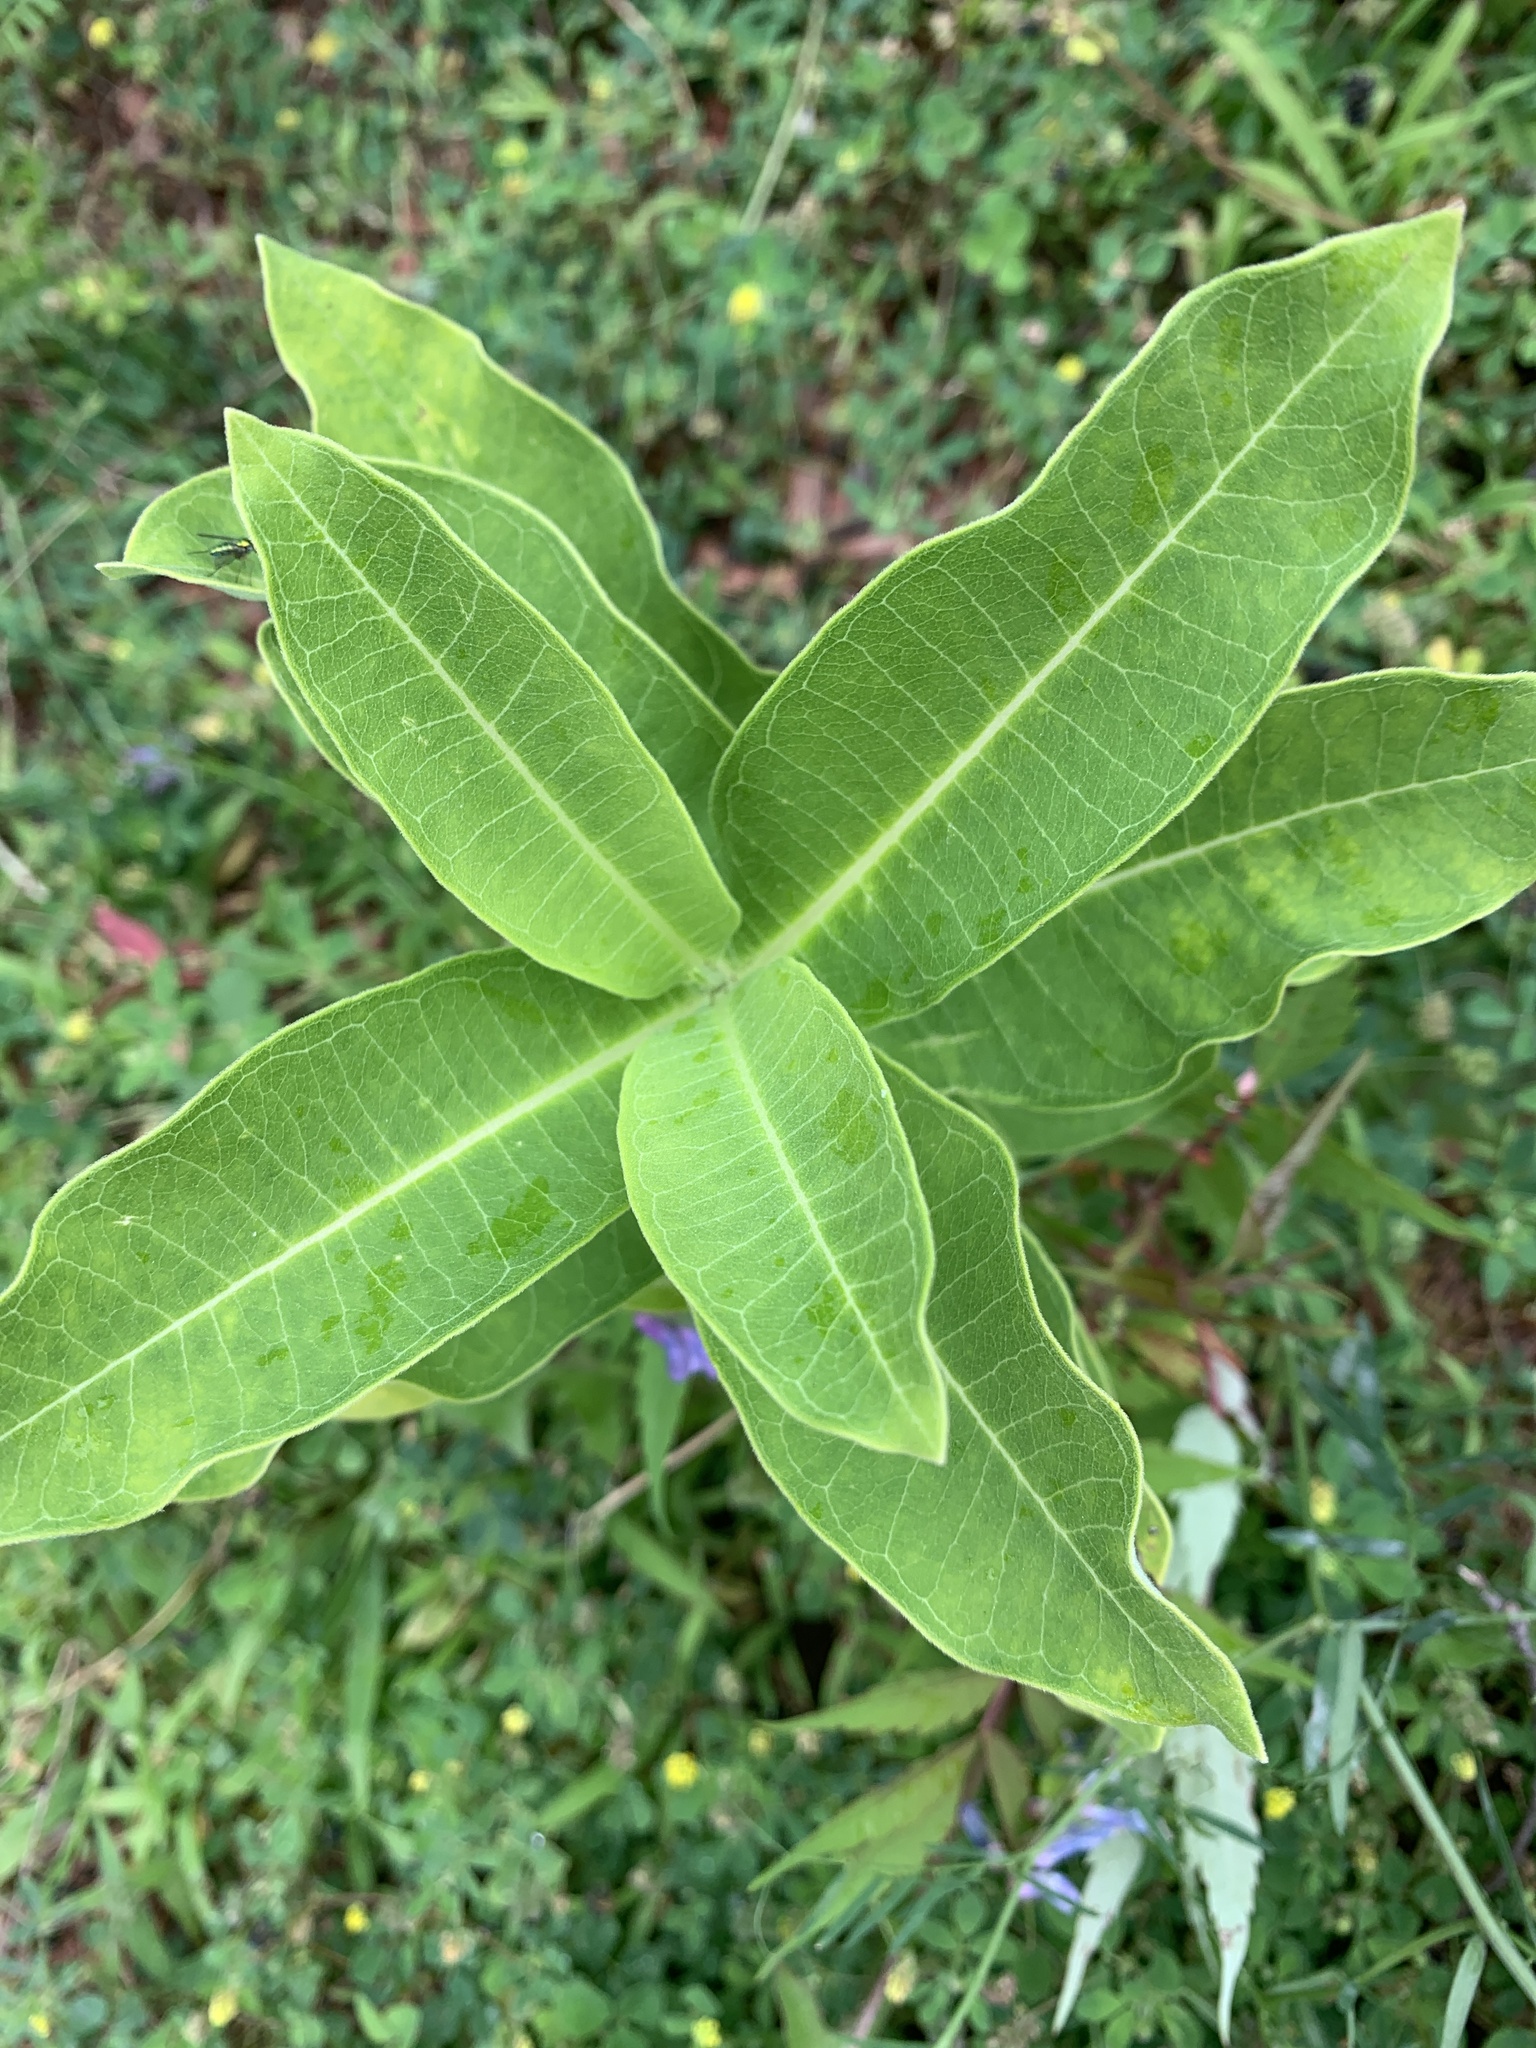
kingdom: Plantae
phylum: Tracheophyta
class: Magnoliopsida
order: Gentianales
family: Apocynaceae
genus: Asclepias
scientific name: Asclepias syriaca
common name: Common milkweed
